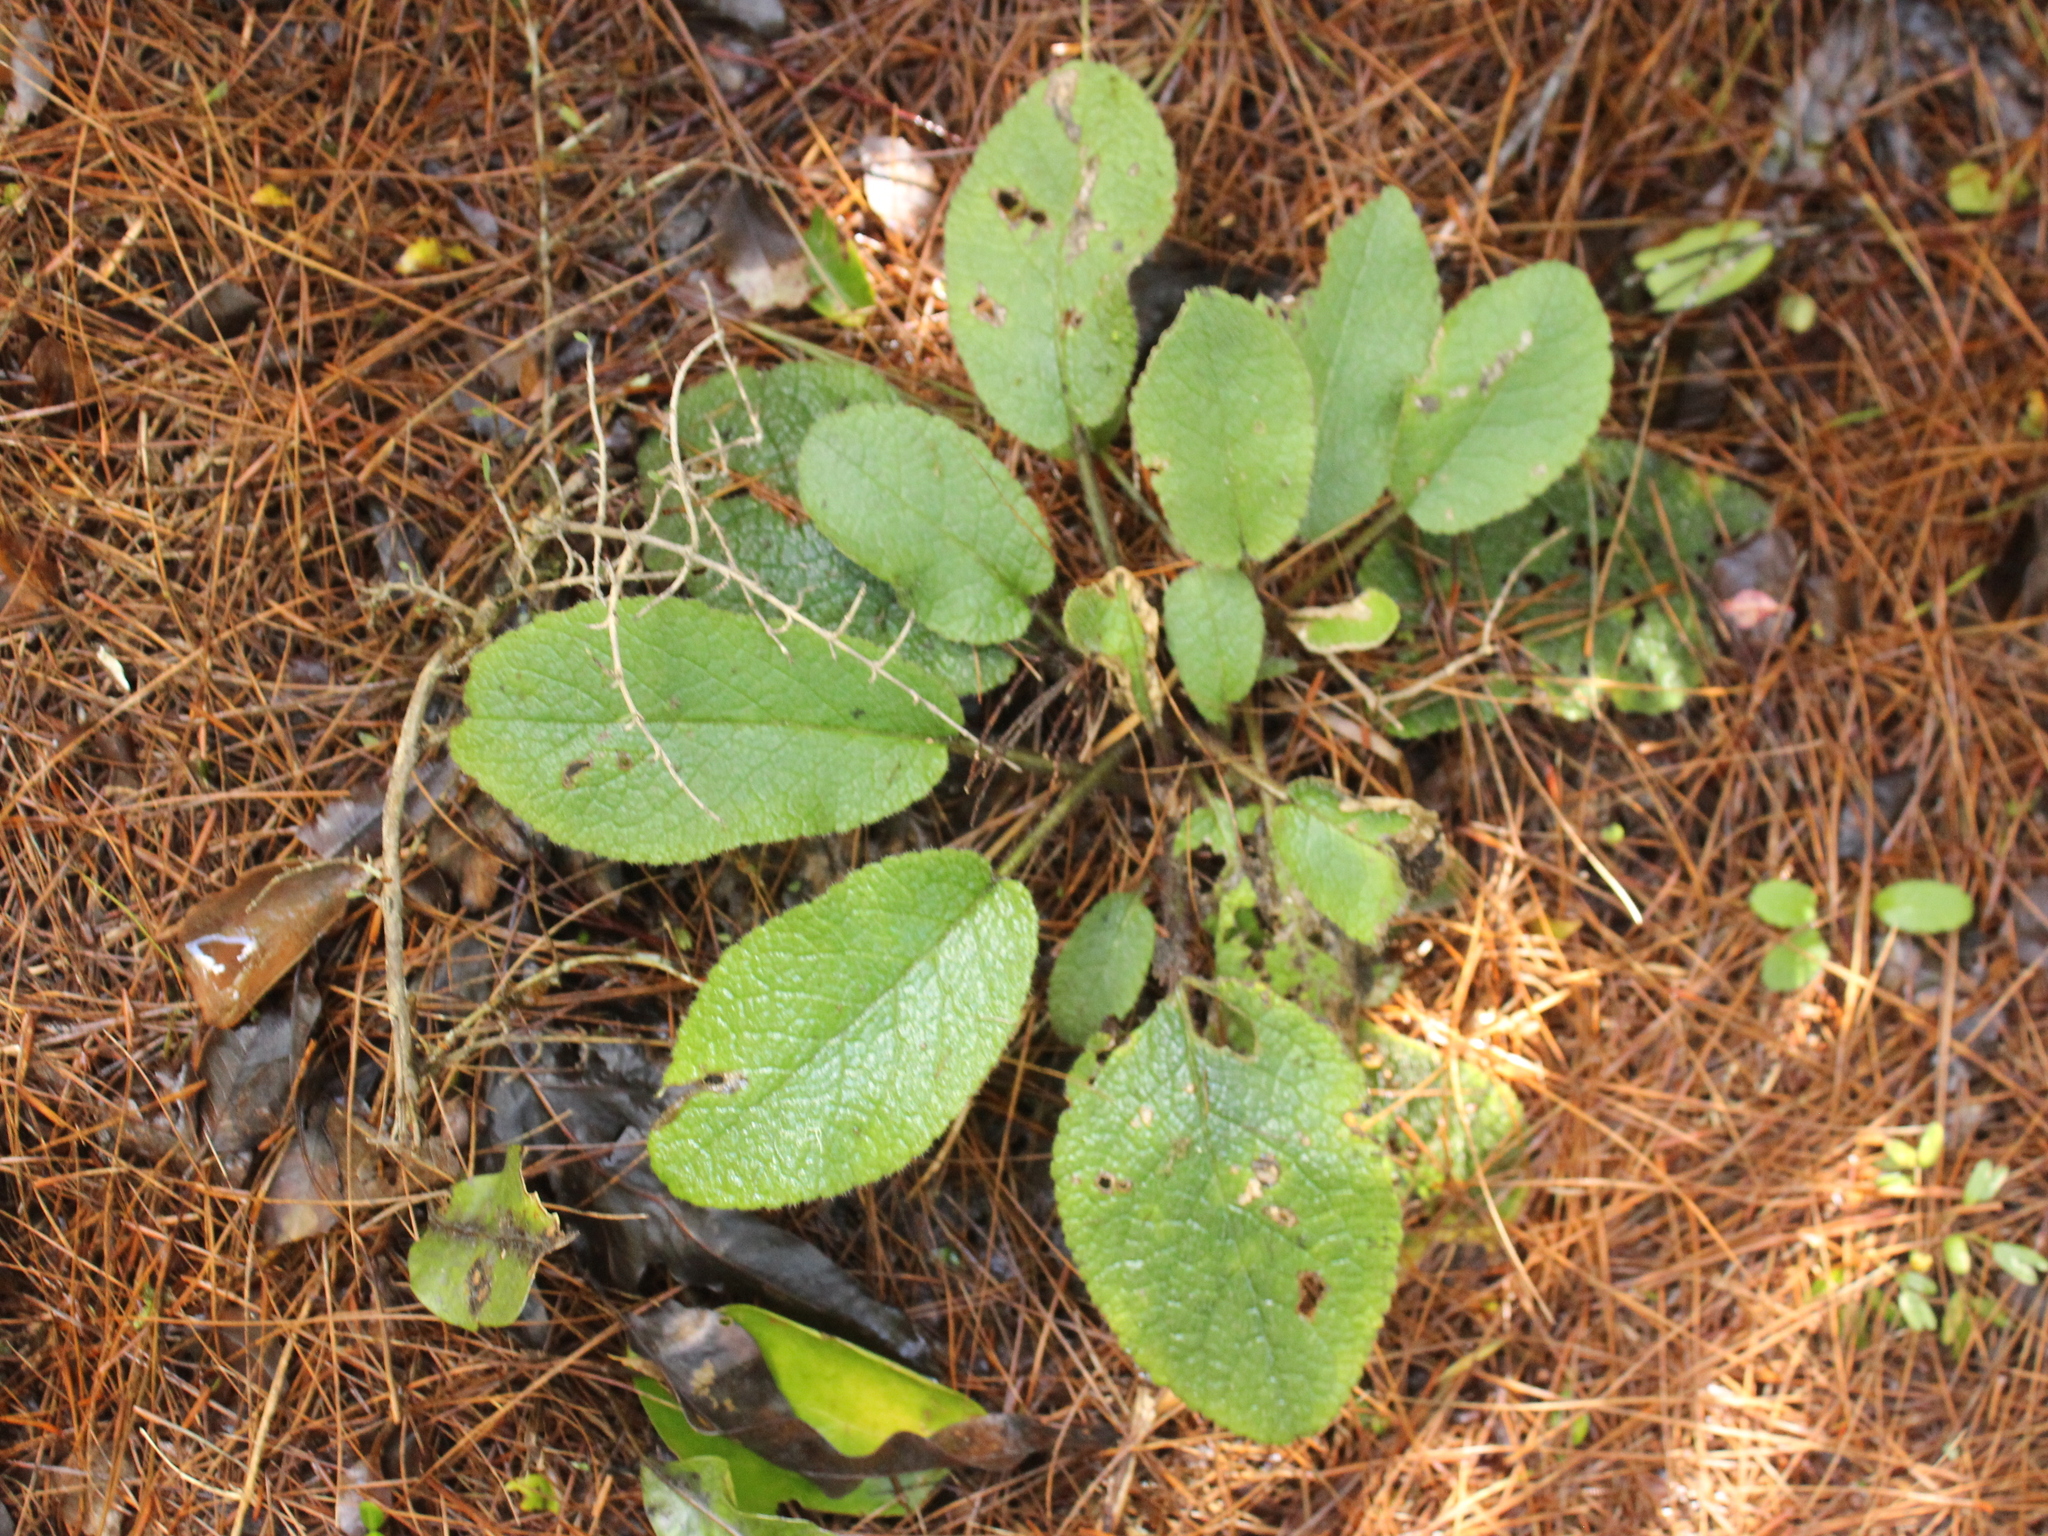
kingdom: Plantae
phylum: Tracheophyta
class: Magnoliopsida
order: Asterales
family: Asteraceae
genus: Brachyglottis
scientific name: Brachyglottis lagopus
